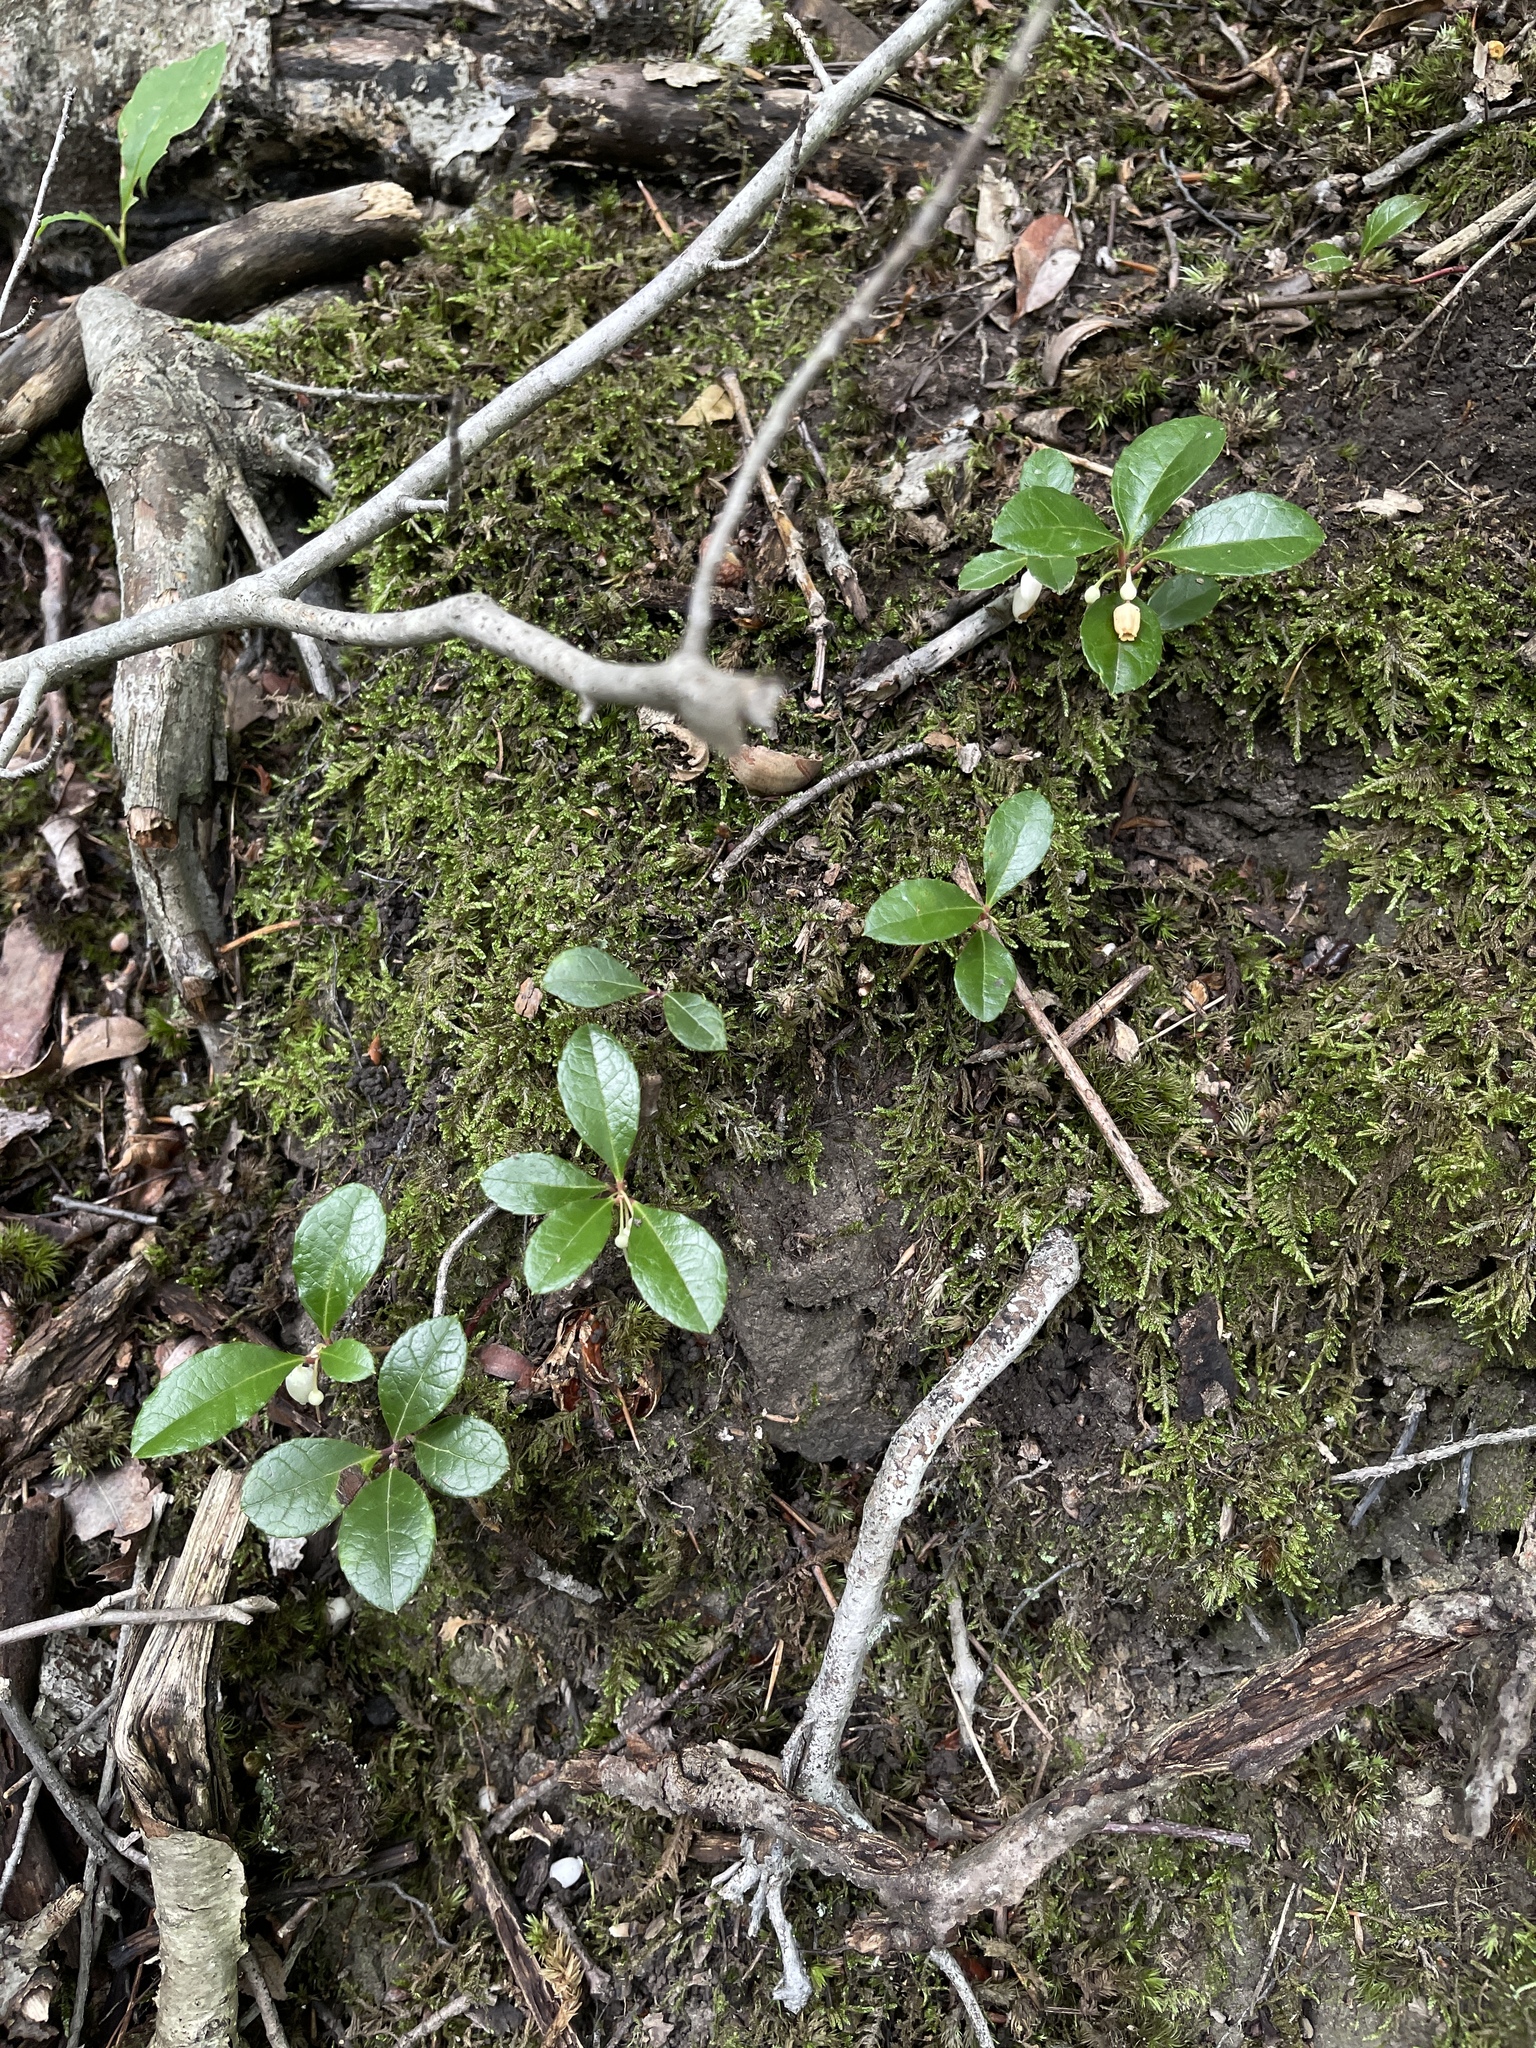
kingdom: Plantae
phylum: Tracheophyta
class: Magnoliopsida
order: Ericales
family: Ericaceae
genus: Gaultheria
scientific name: Gaultheria procumbens
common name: Checkerberry
